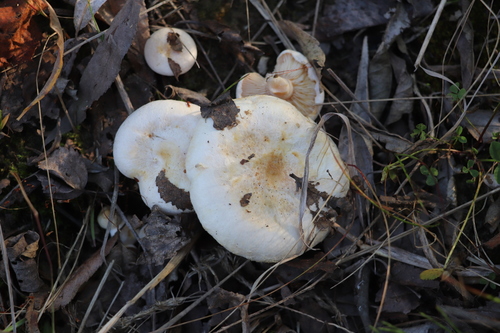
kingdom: Fungi
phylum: Basidiomycota
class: Agaricomycetes
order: Russulales
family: Russulaceae
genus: Lactarius
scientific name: Lactarius pubescens
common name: Bearded milkcap
